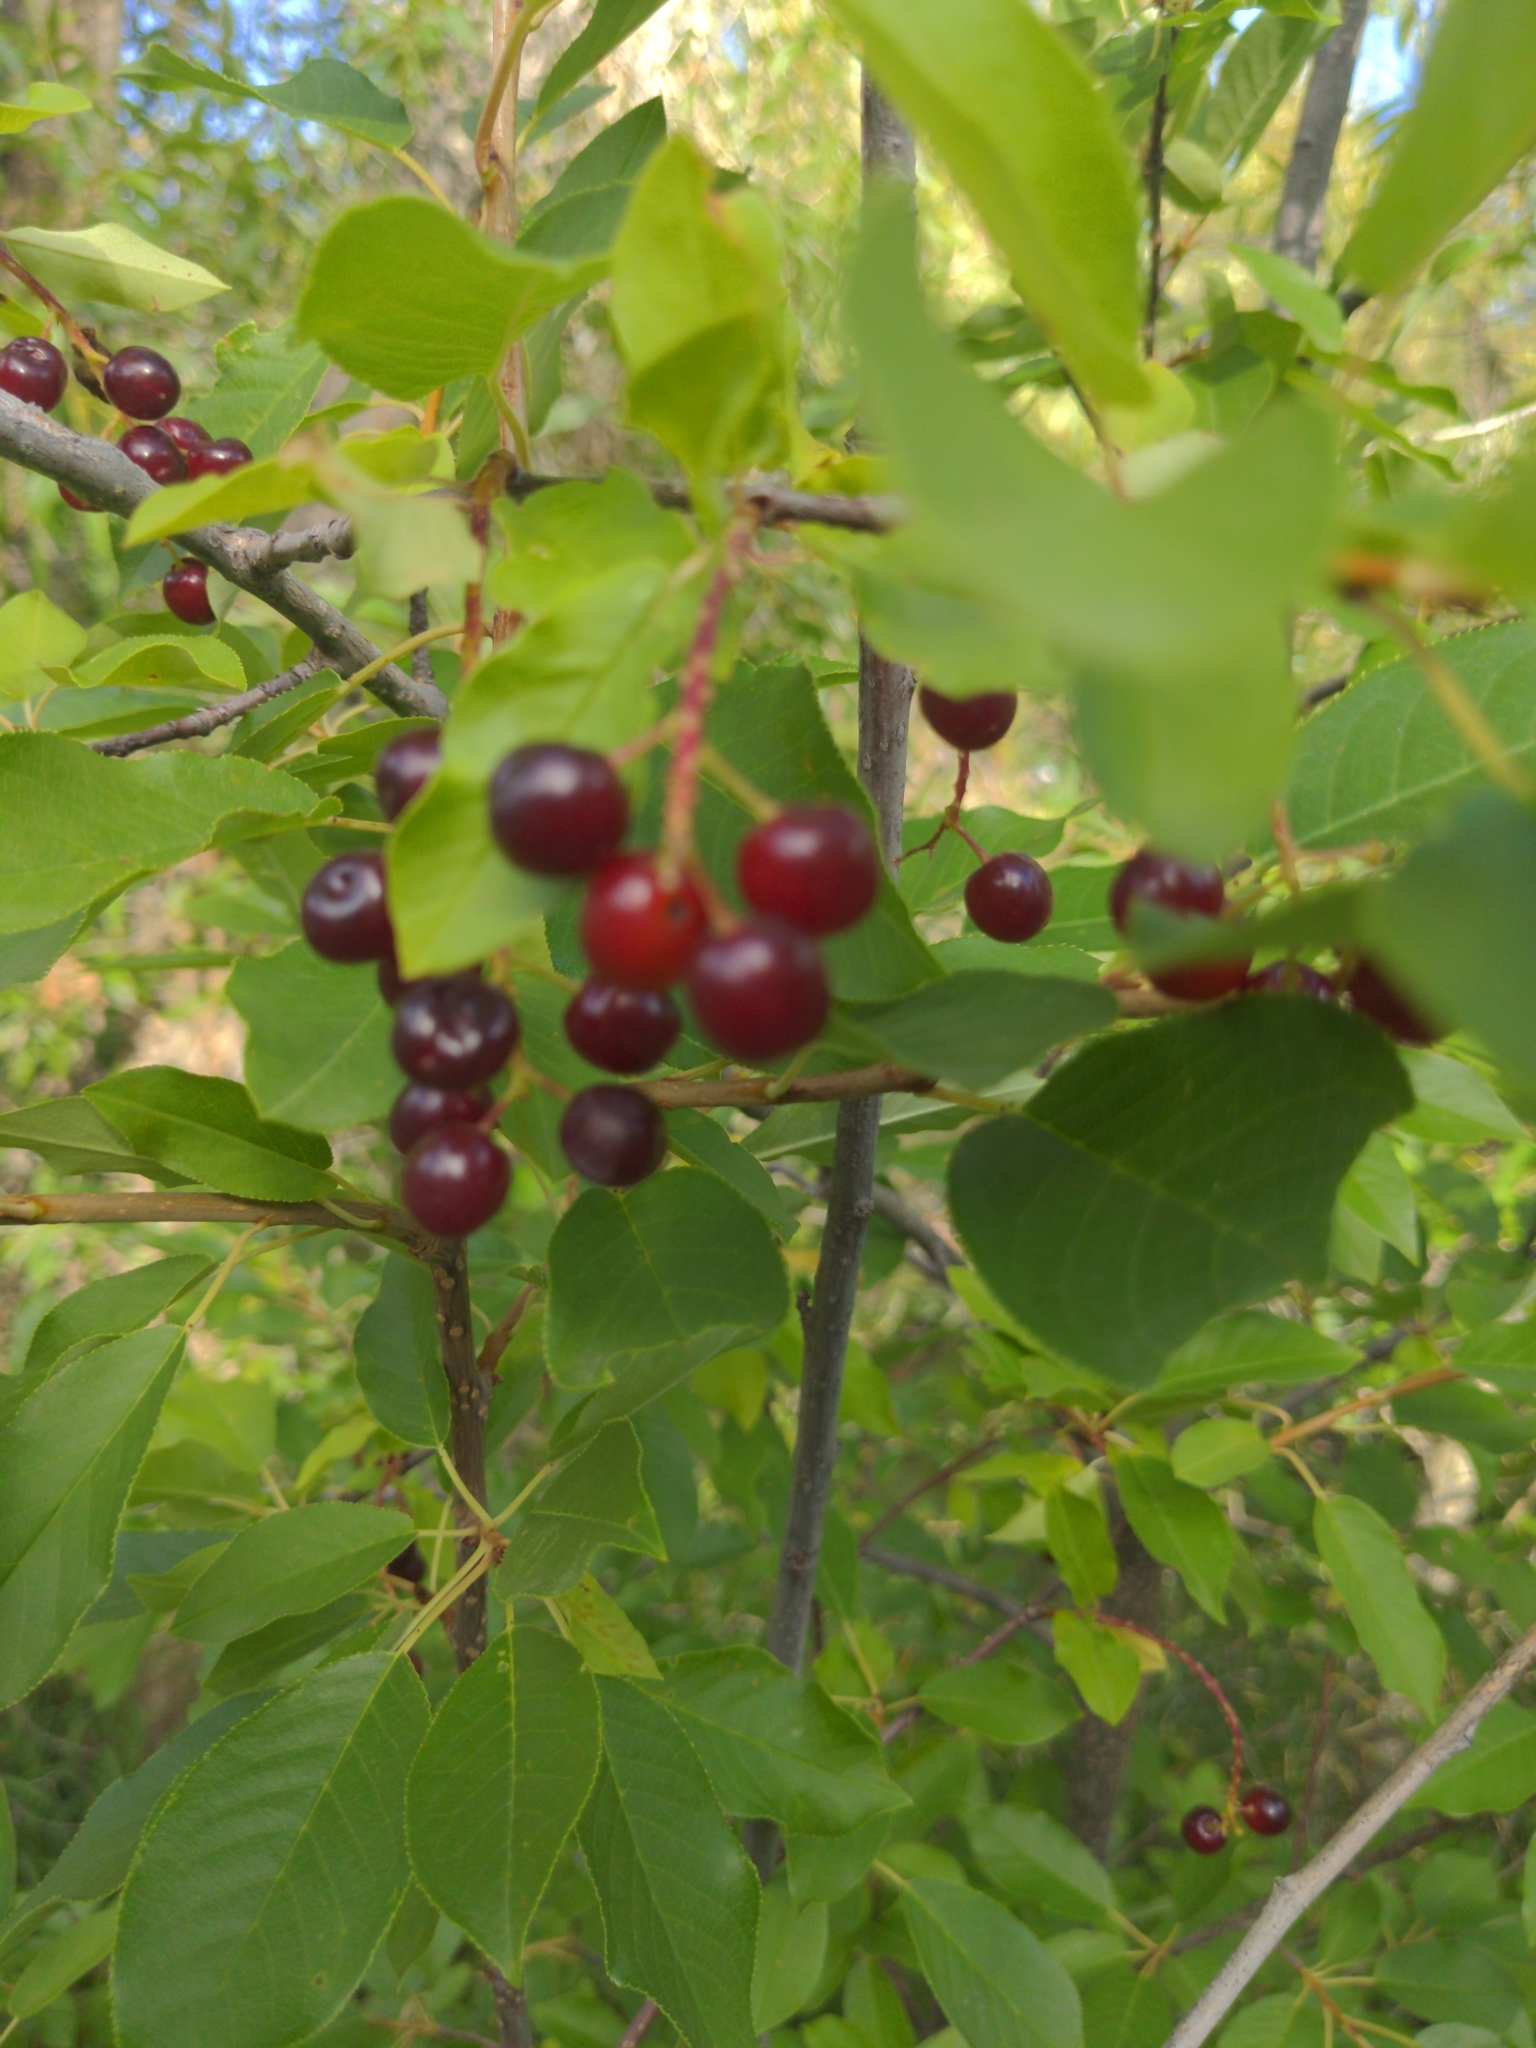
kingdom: Plantae
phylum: Tracheophyta
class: Magnoliopsida
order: Rosales
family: Rosaceae
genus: Prunus
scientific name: Prunus virginiana
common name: Chokecherry
